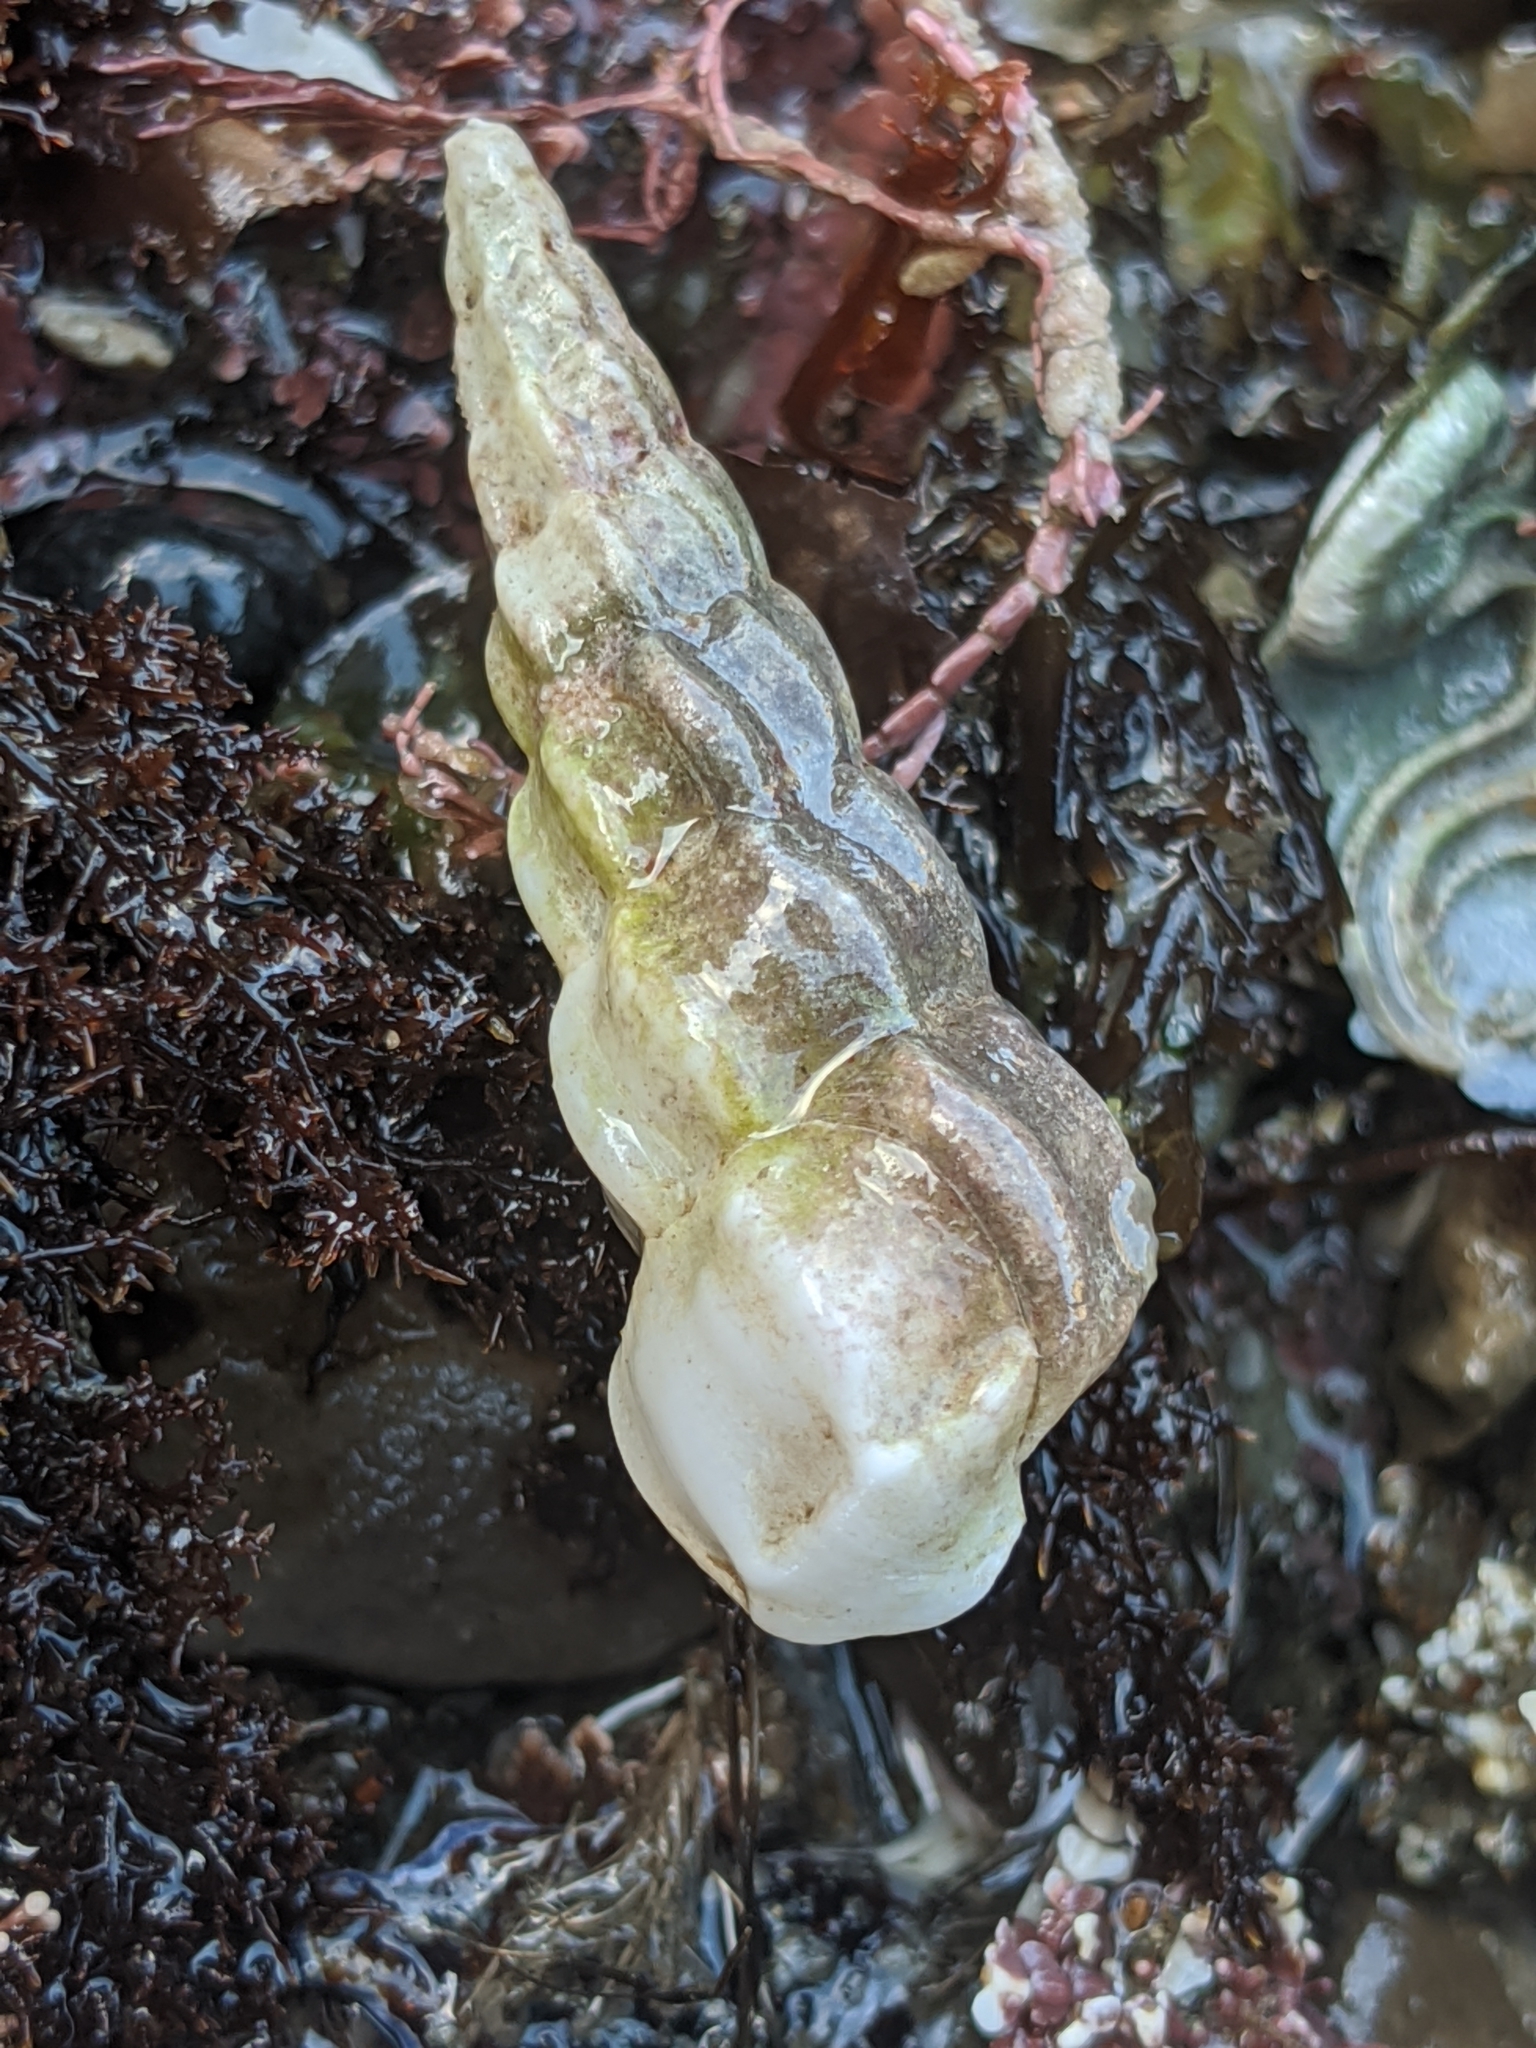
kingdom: Animalia
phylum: Mollusca
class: Gastropoda
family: Epitoniidae
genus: Opalia
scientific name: Opalia wroblewskyi
